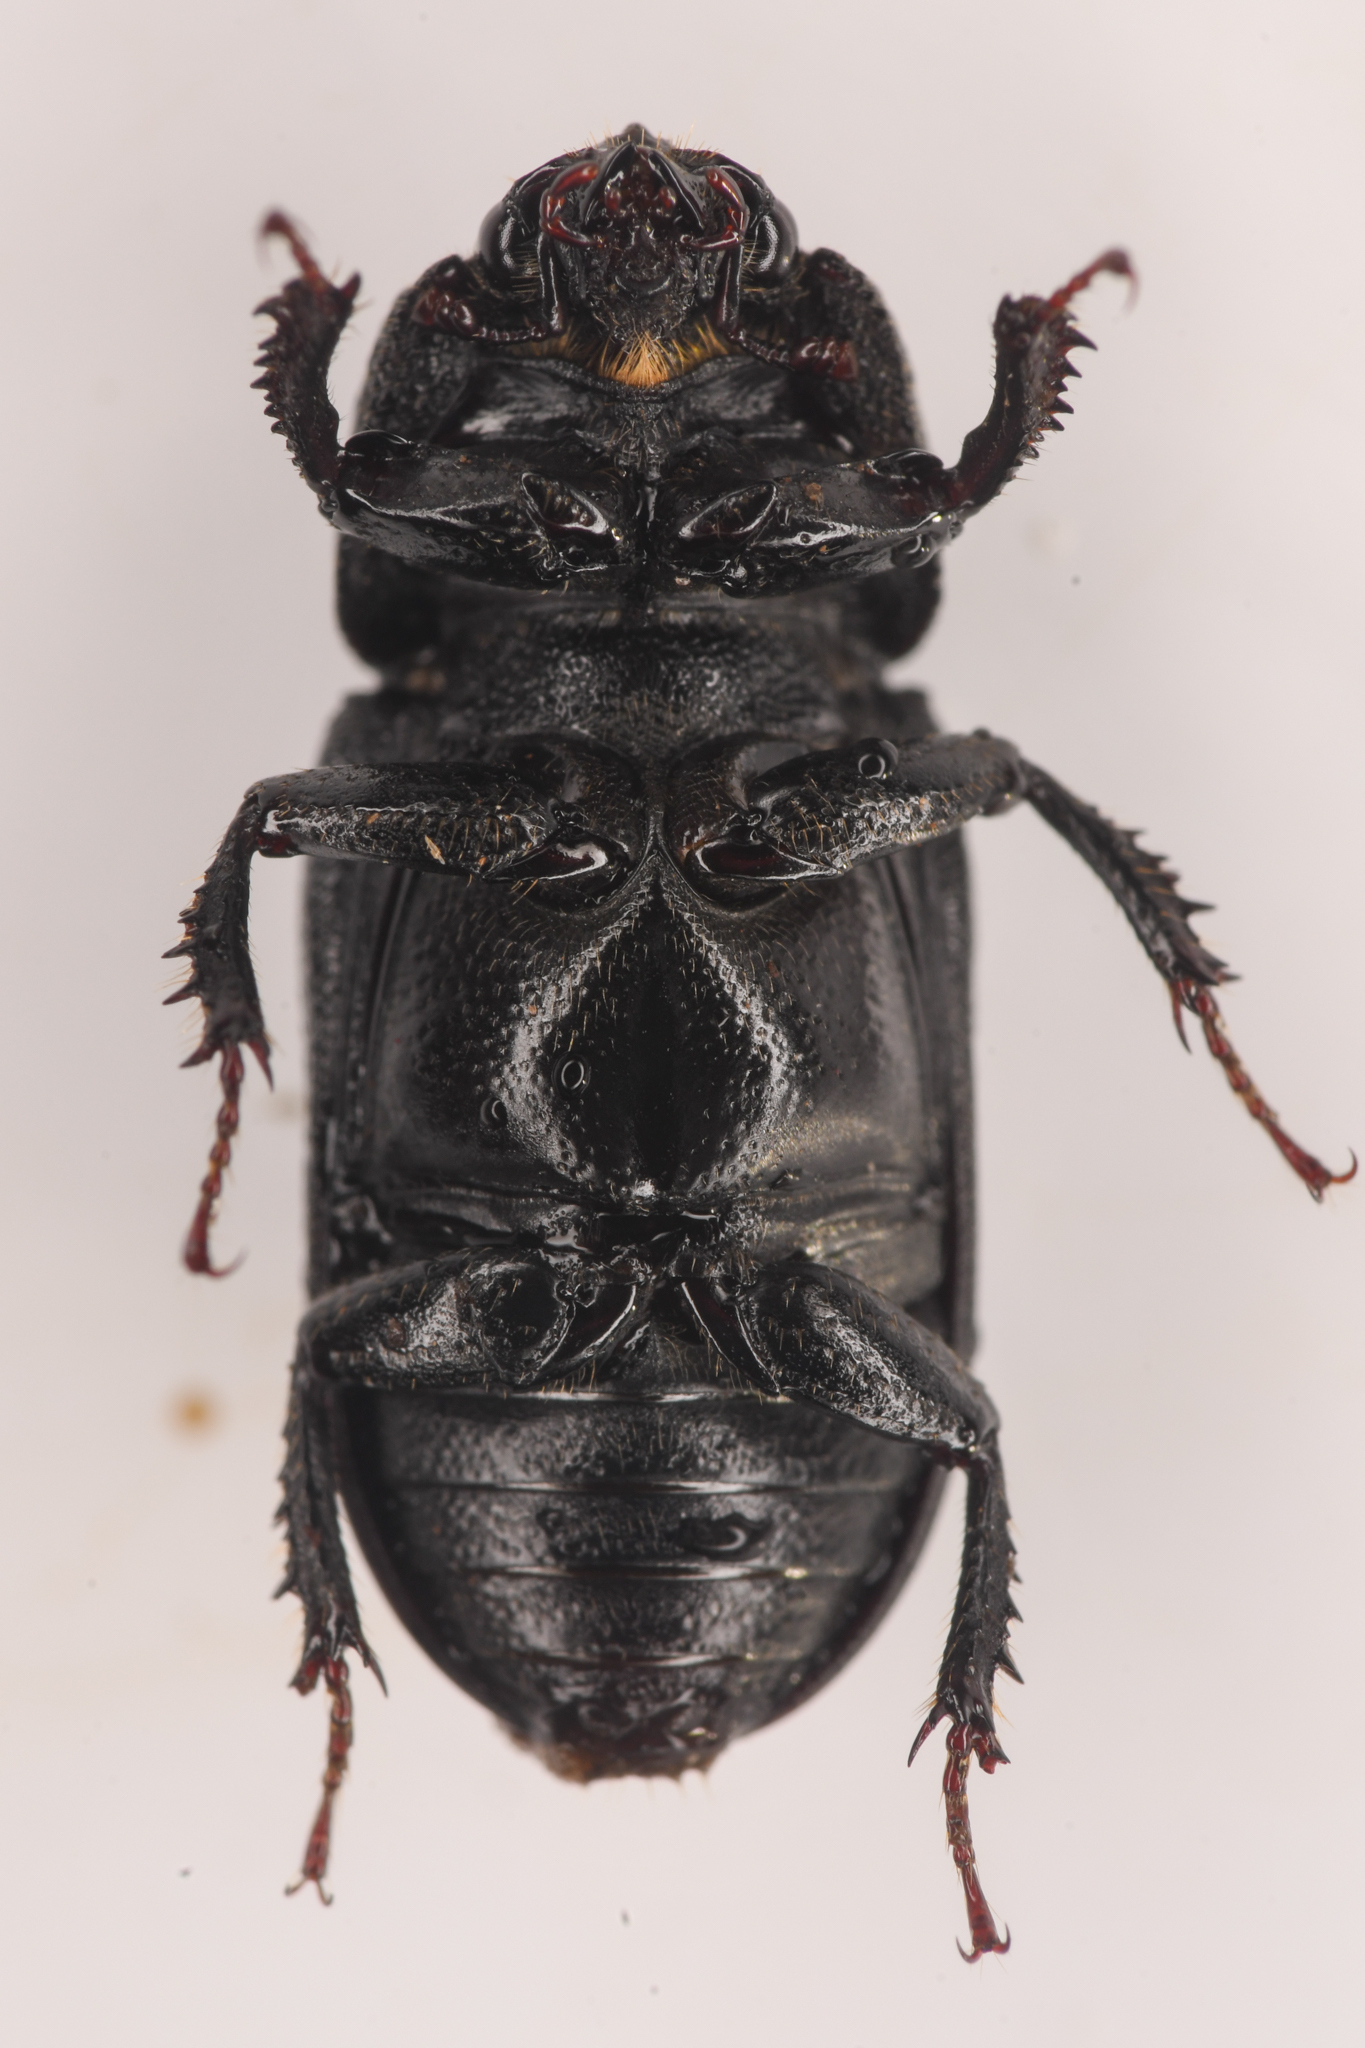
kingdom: Animalia
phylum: Arthropoda
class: Insecta
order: Coleoptera
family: Lucanidae
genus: Sinodendron
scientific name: Sinodendron rugosum
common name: Rugose stag beelte
